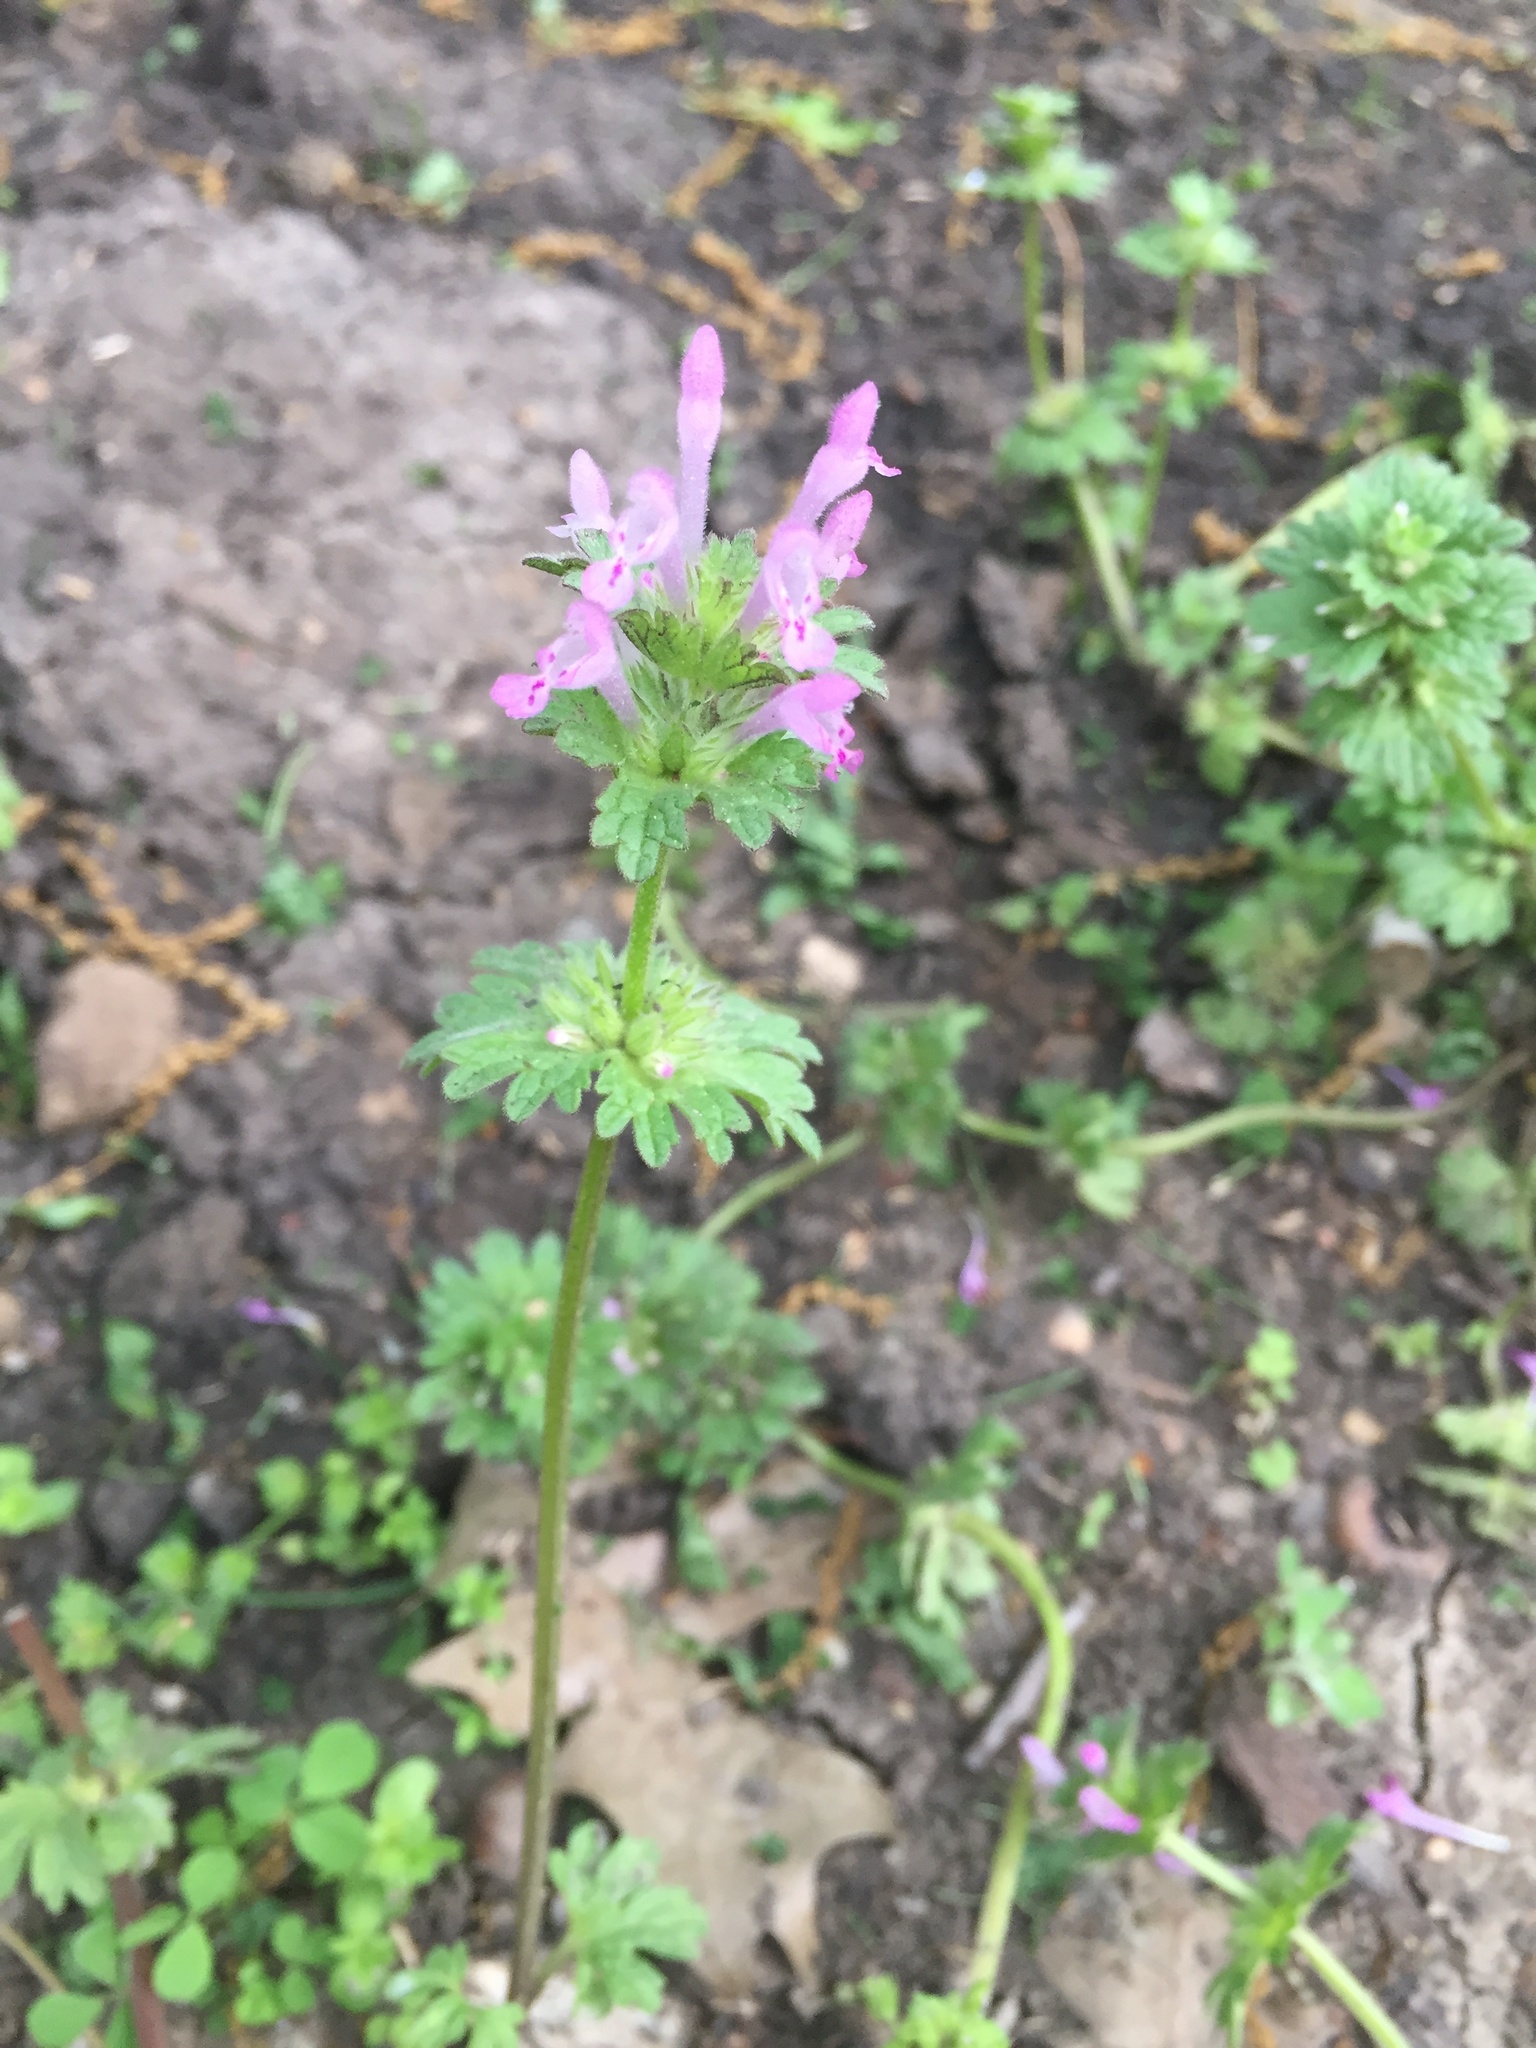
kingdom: Plantae
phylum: Tracheophyta
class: Magnoliopsida
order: Lamiales
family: Lamiaceae
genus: Lamium
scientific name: Lamium amplexicaule
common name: Henbit dead-nettle
